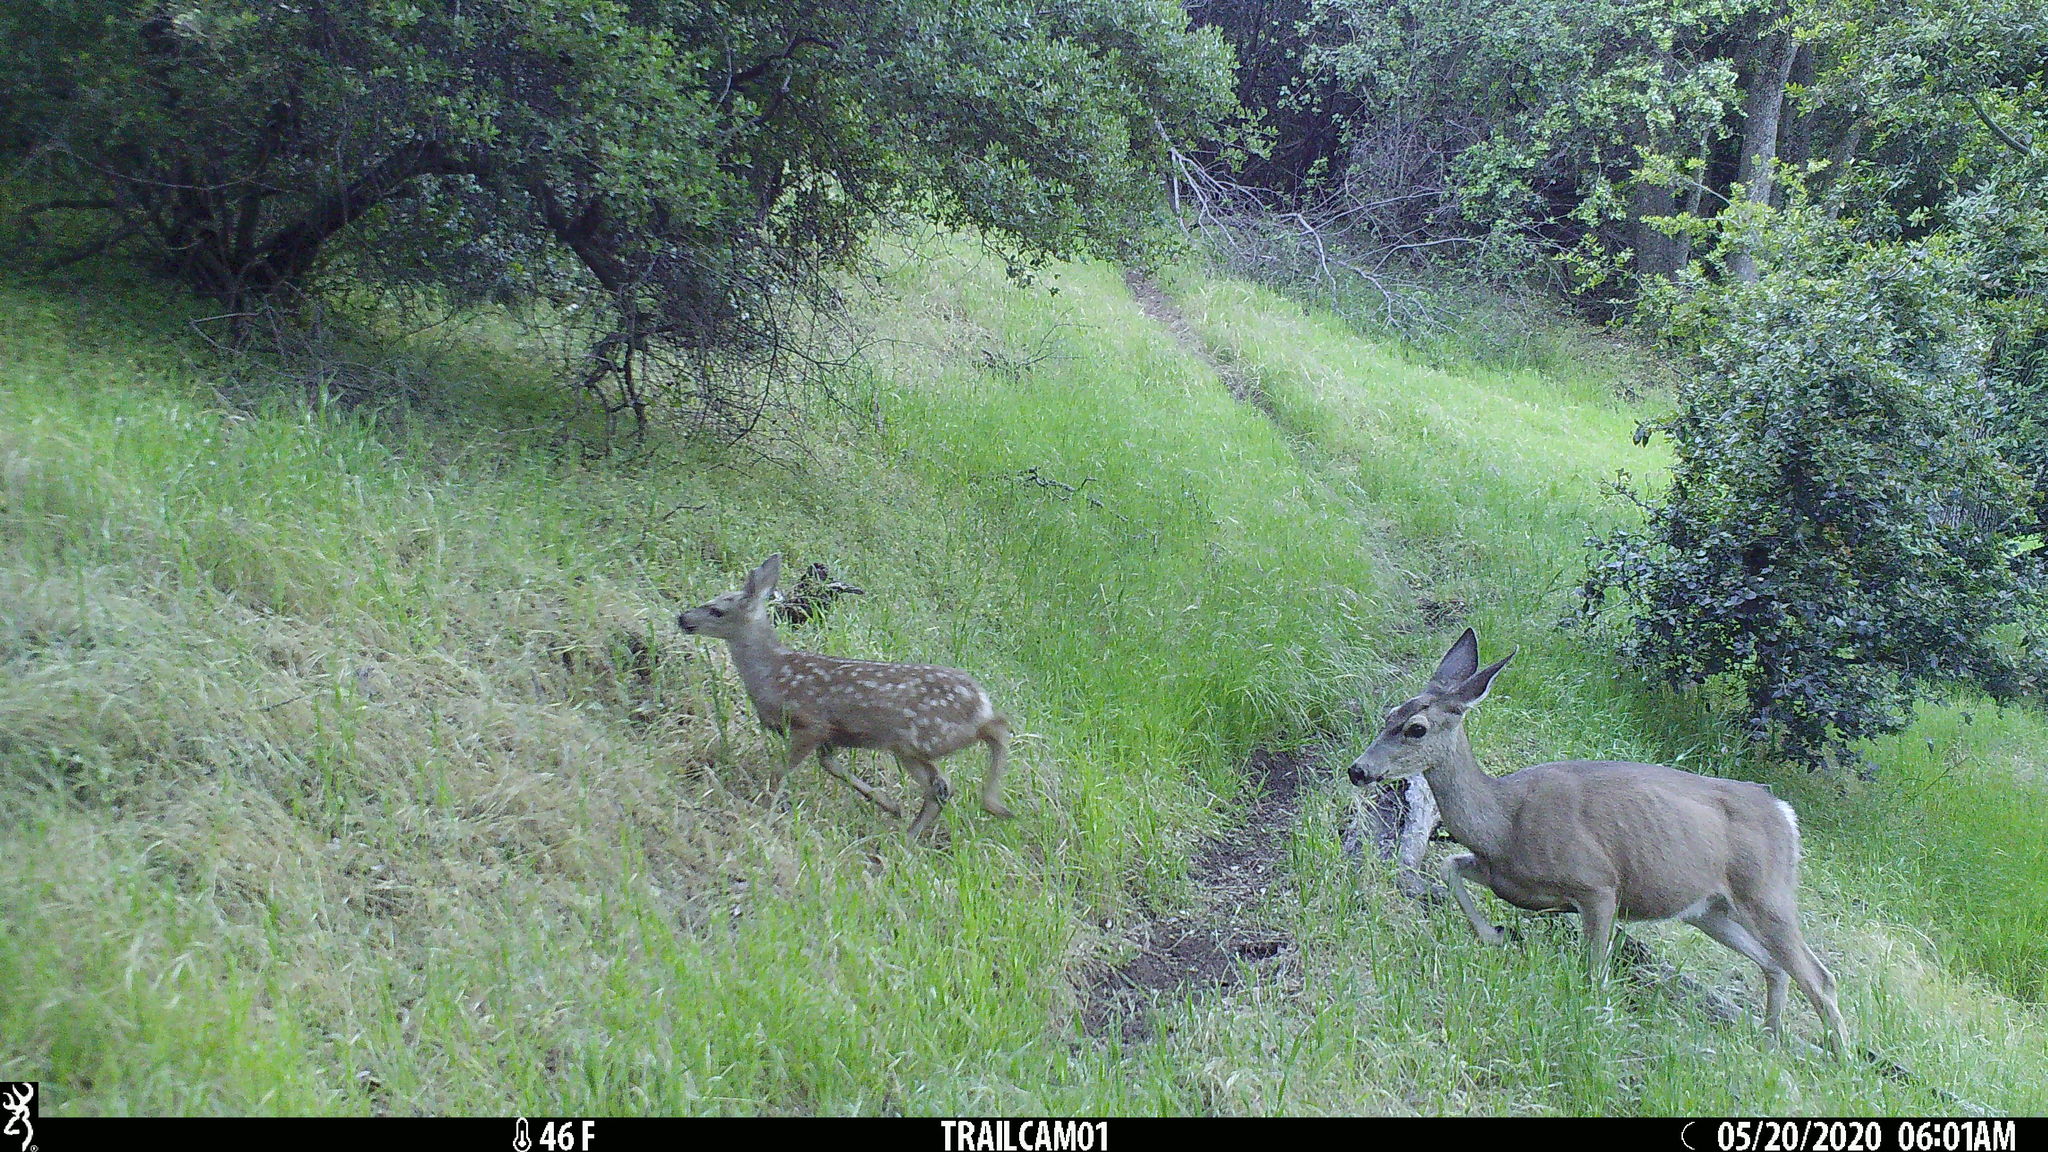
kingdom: Animalia
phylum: Chordata
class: Mammalia
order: Artiodactyla
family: Cervidae
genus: Odocoileus
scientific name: Odocoileus hemionus
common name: Mule deer
